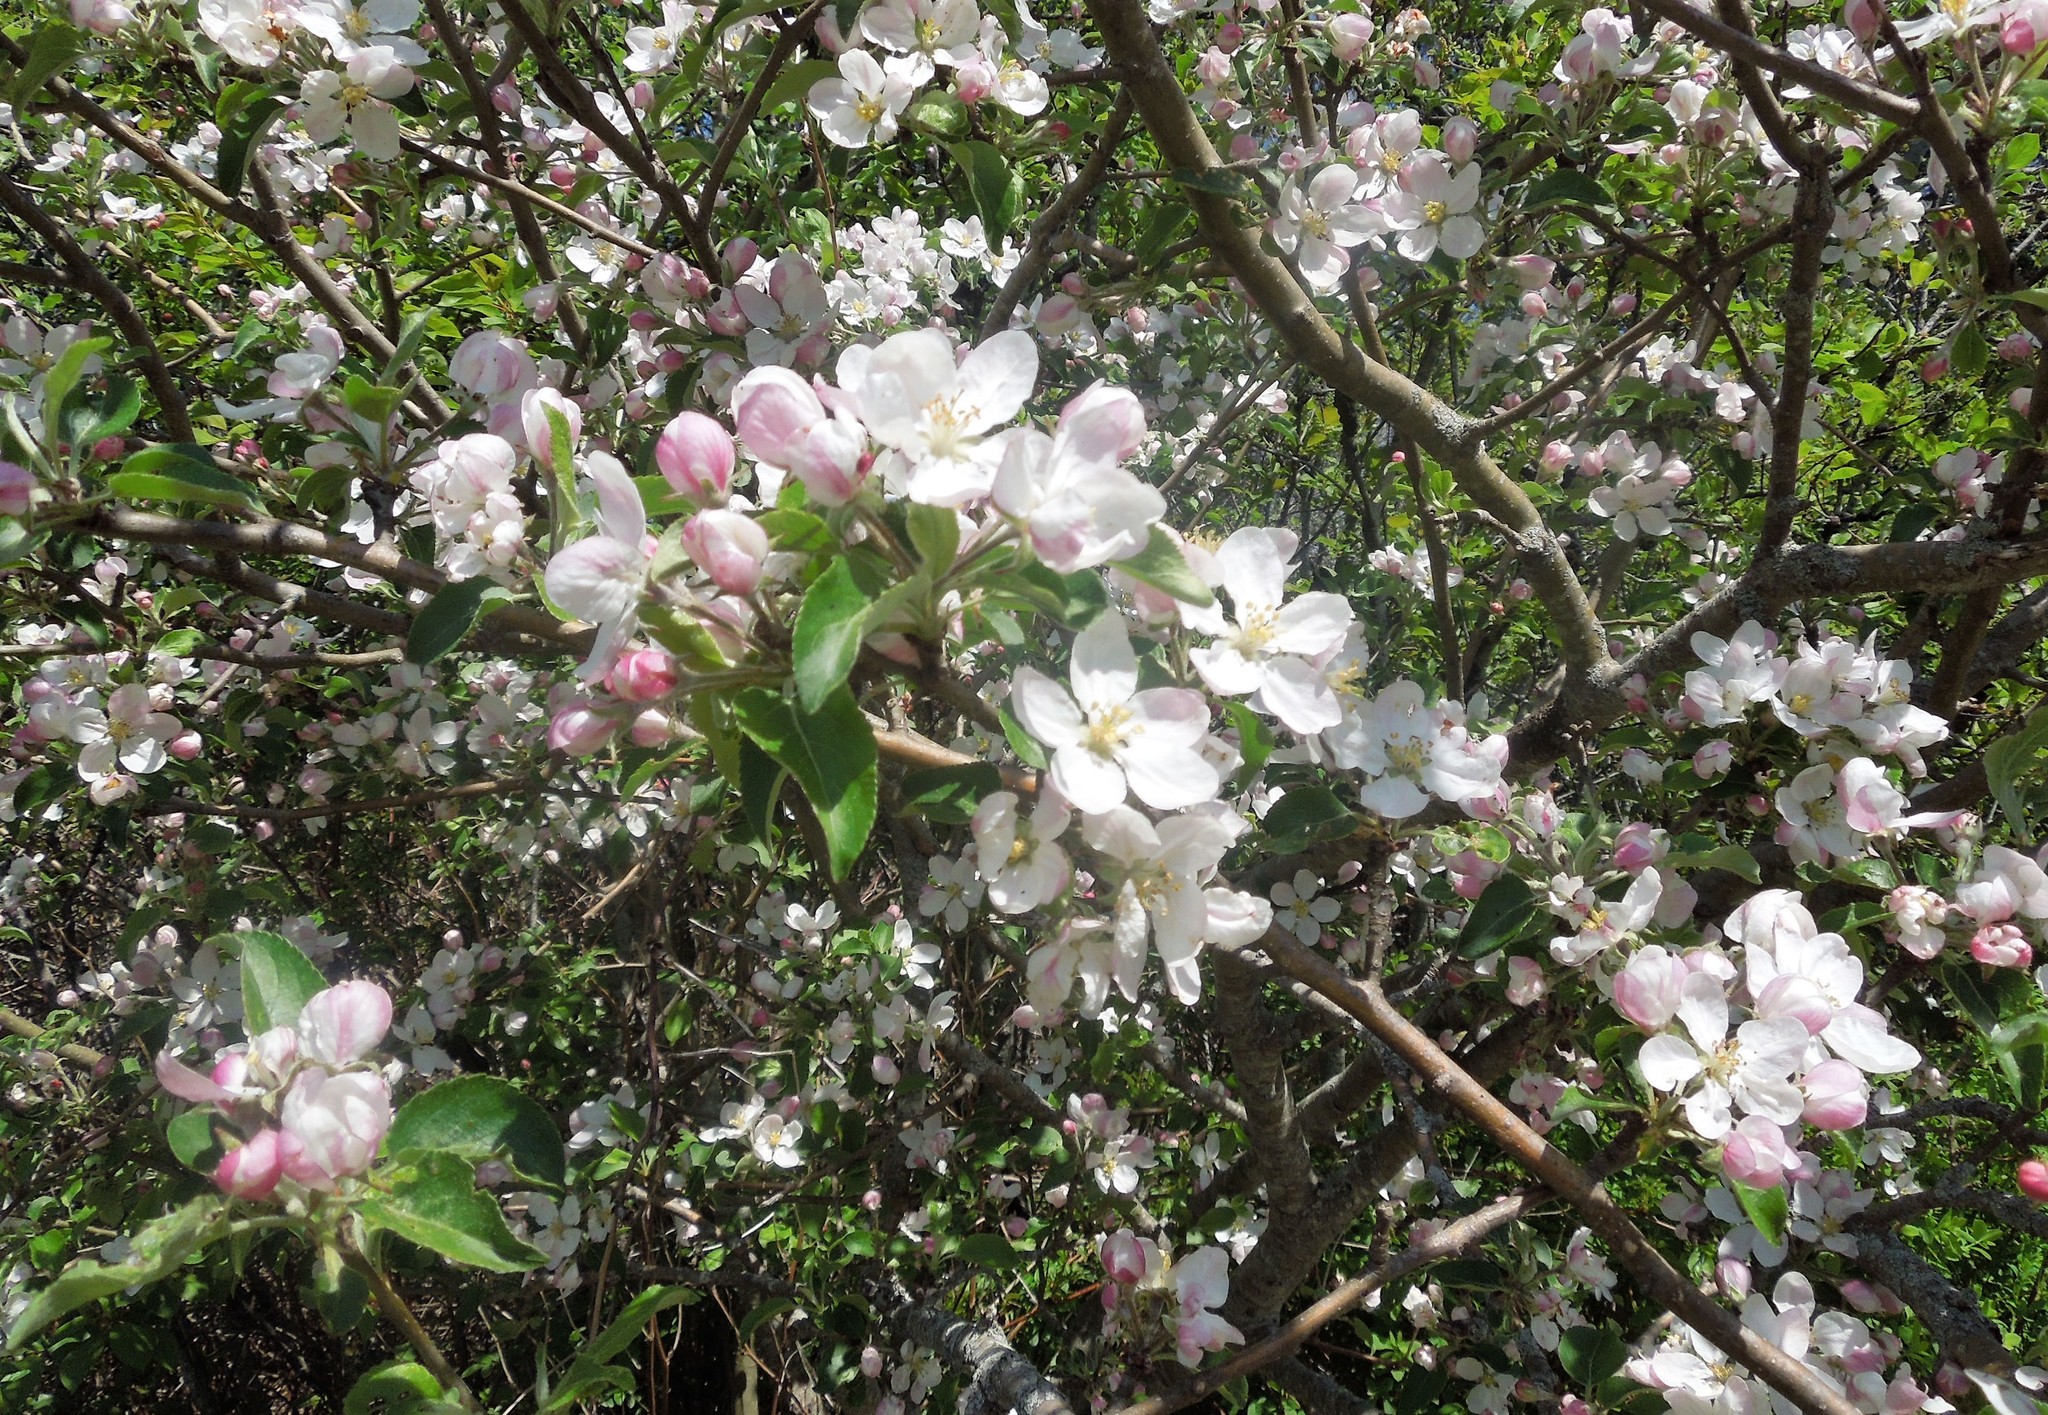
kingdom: Plantae
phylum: Tracheophyta
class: Magnoliopsida
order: Rosales
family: Rosaceae
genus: Malus
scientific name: Malus domestica
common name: Apple
